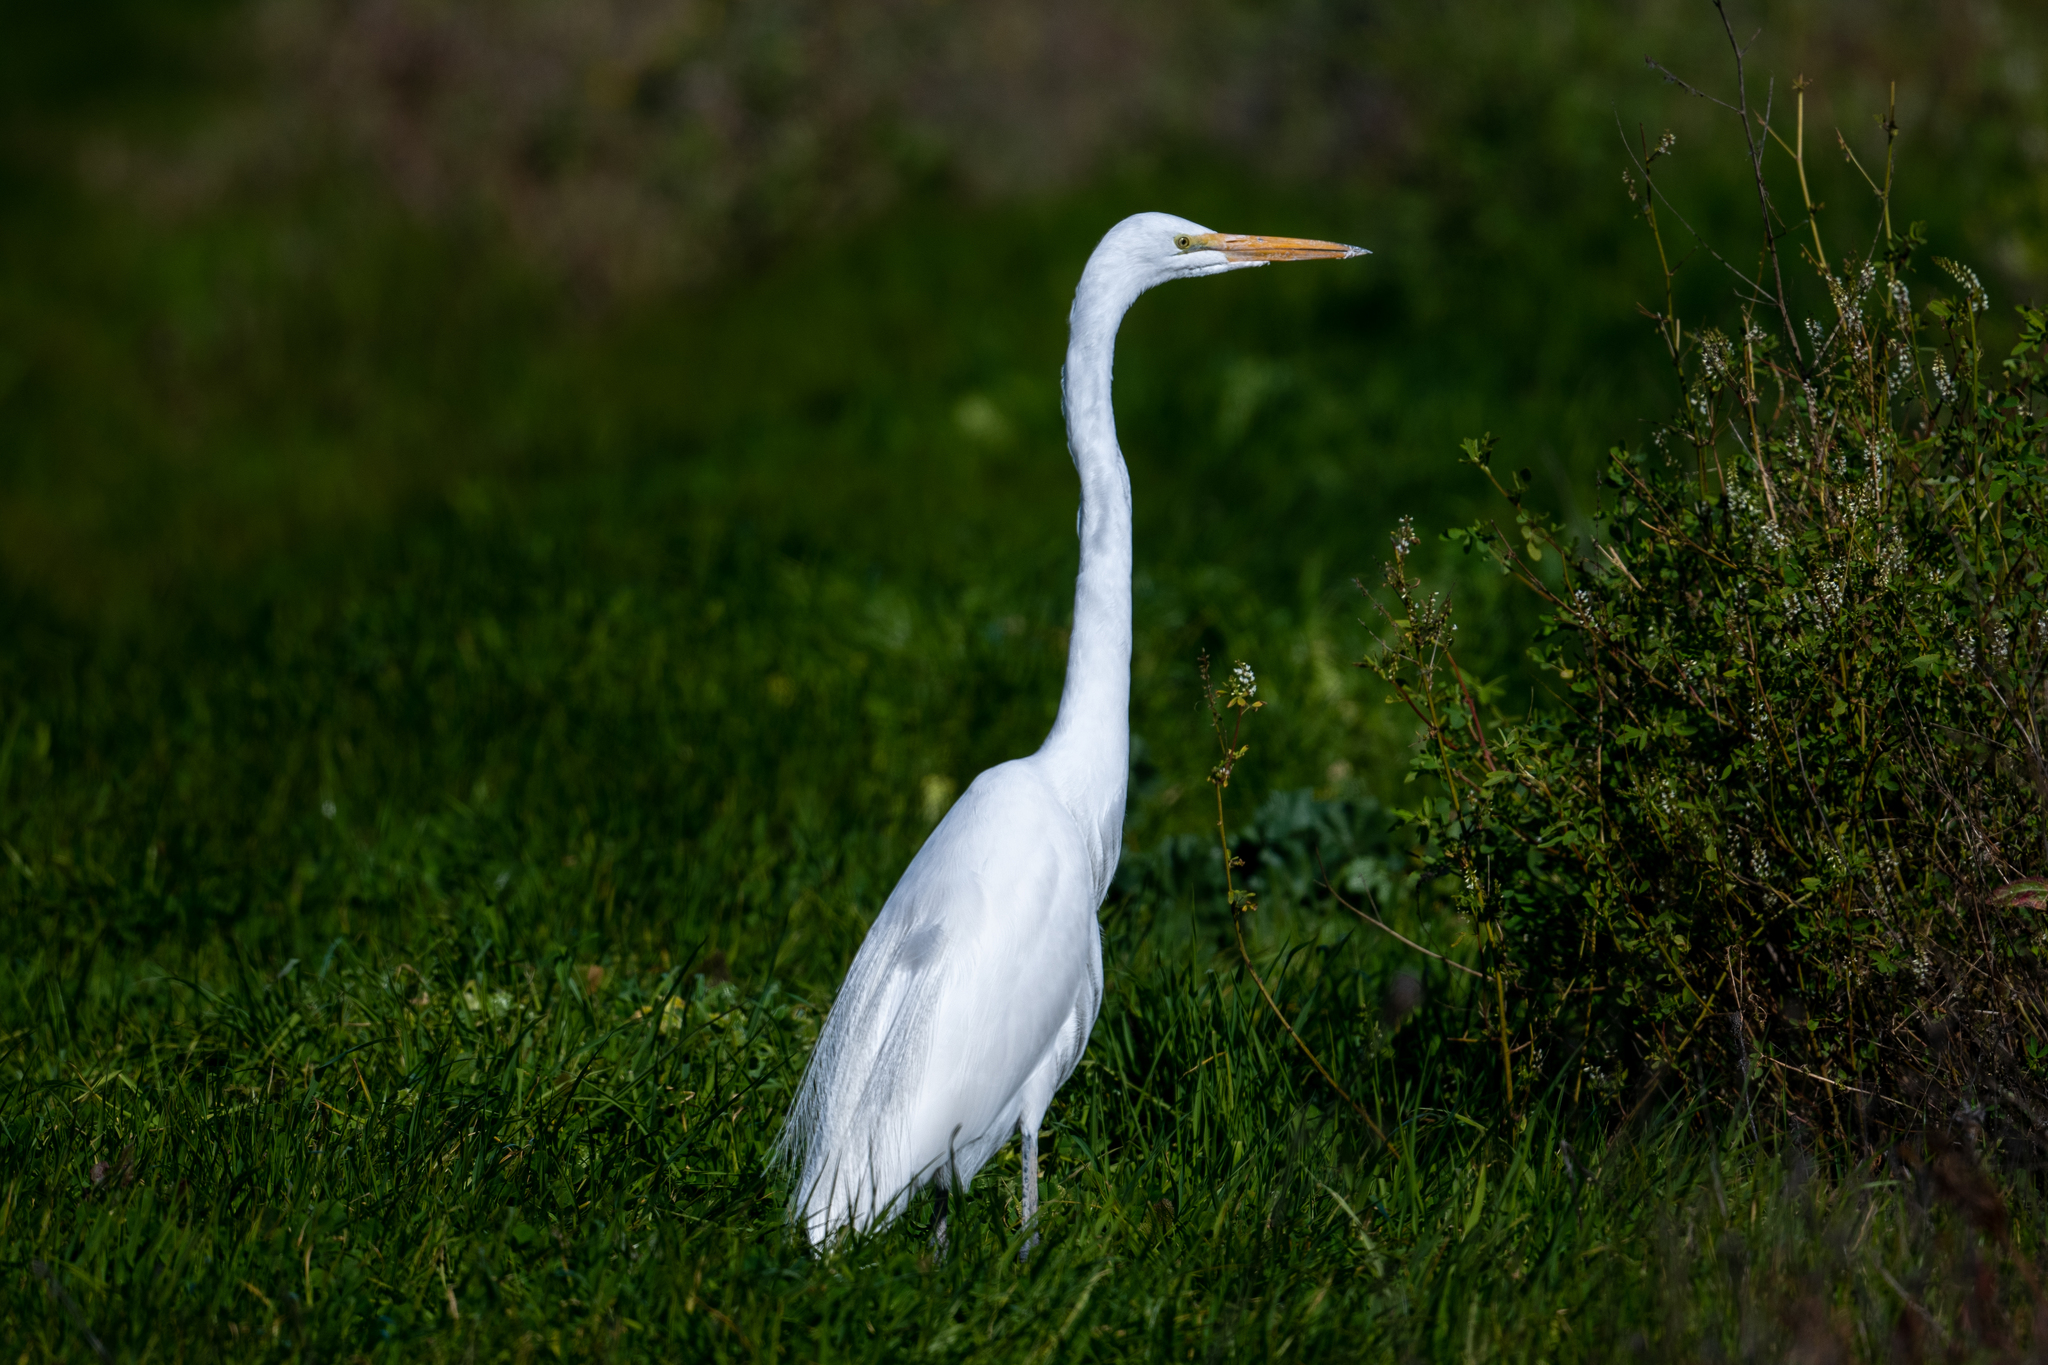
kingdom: Animalia
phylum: Chordata
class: Aves
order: Pelecaniformes
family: Ardeidae
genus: Ardea
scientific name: Ardea alba
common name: Great egret
